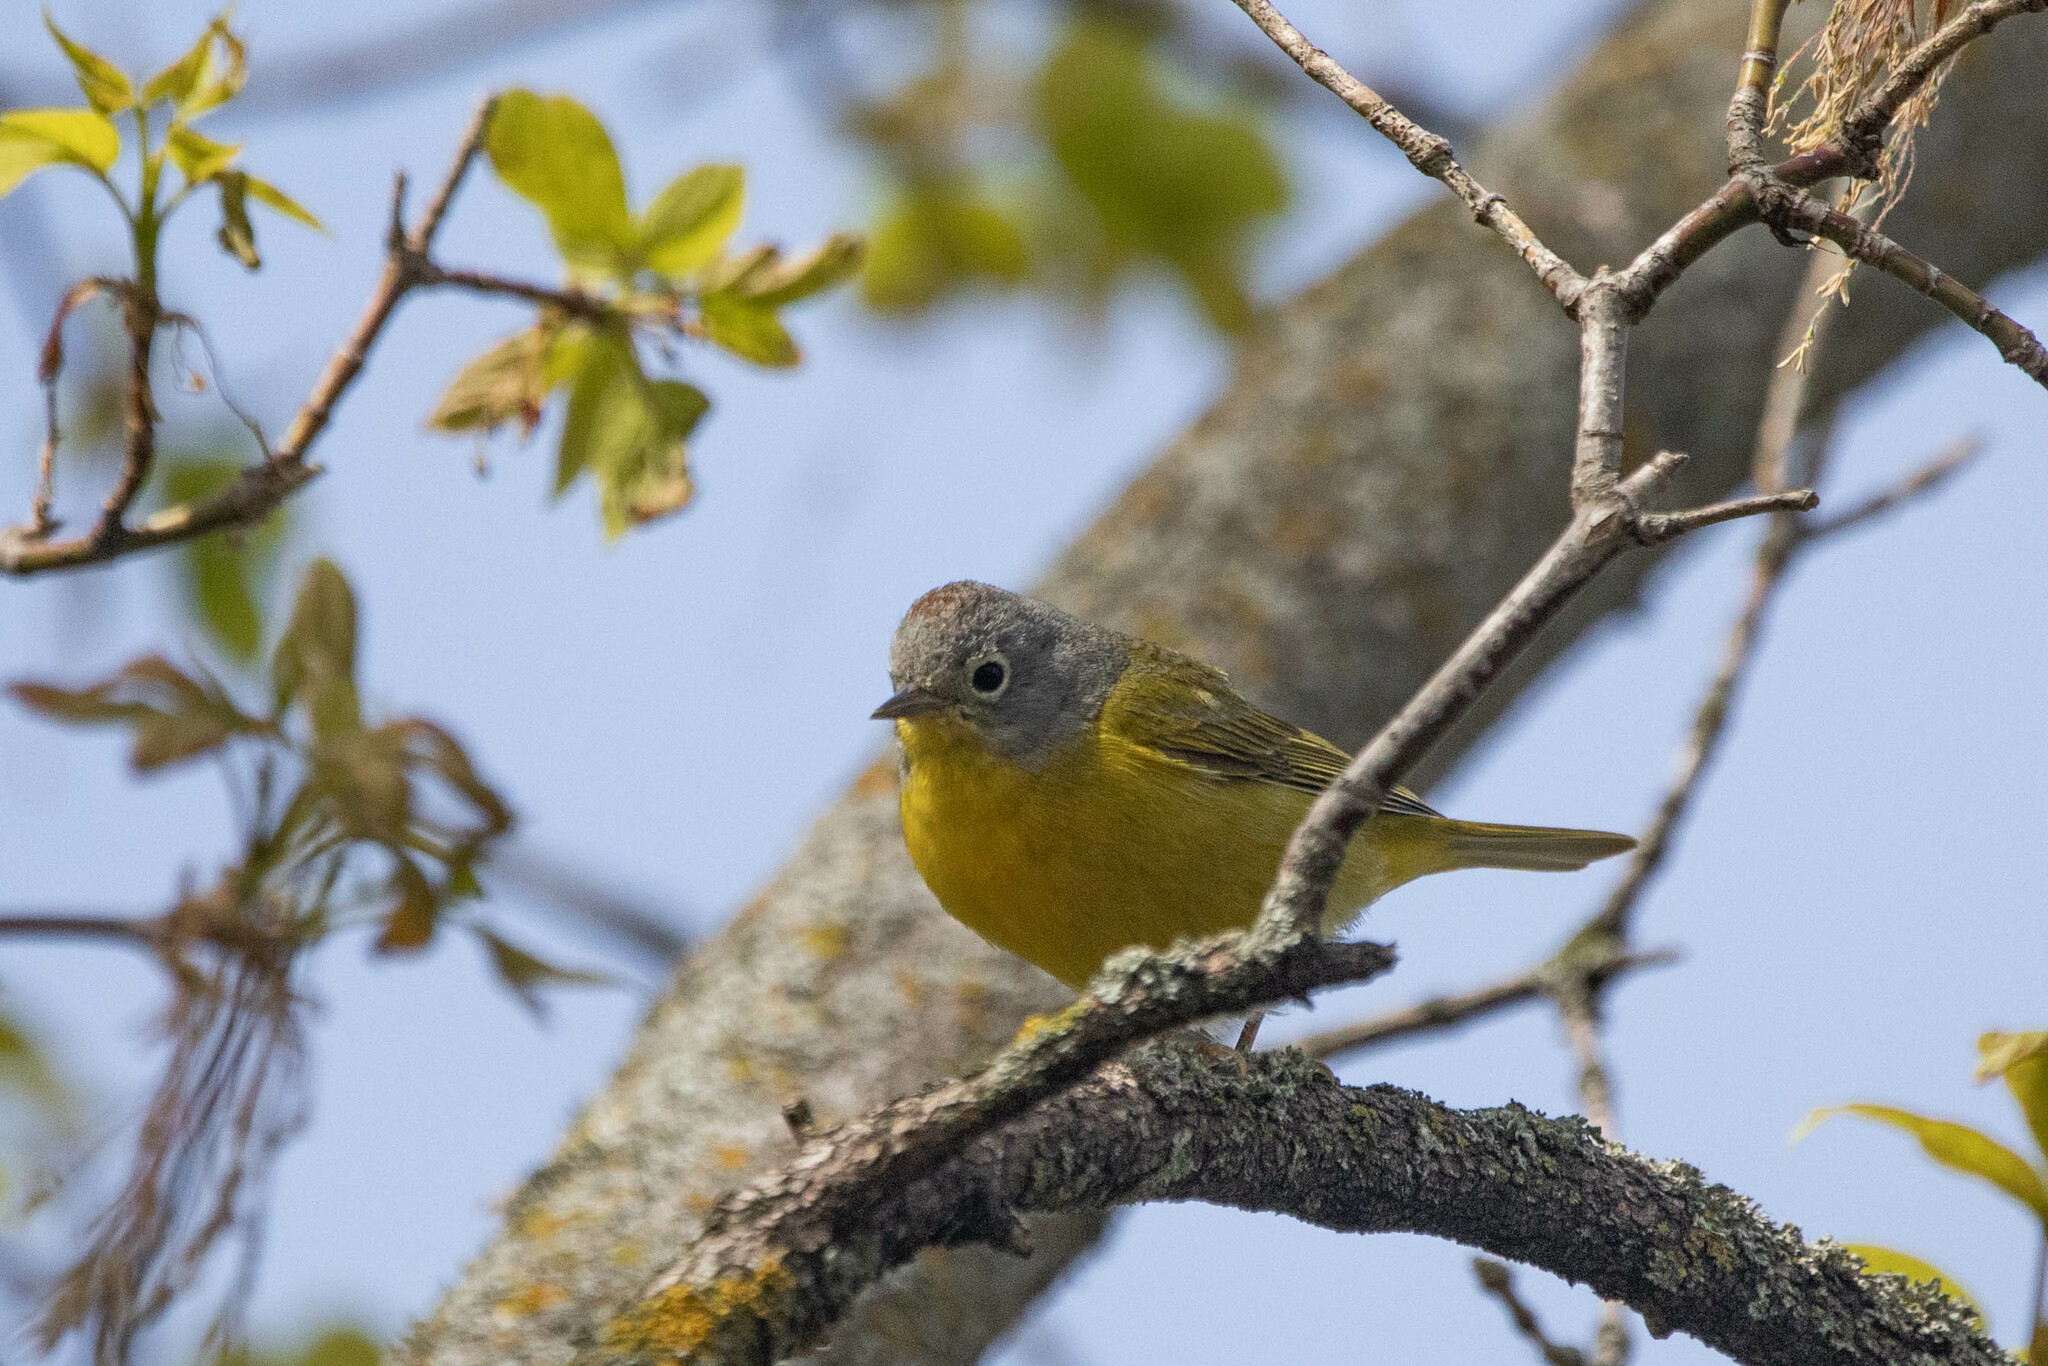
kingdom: Animalia
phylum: Chordata
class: Aves
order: Passeriformes
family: Parulidae
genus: Leiothlypis
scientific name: Leiothlypis ruficapilla
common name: Nashville warbler
